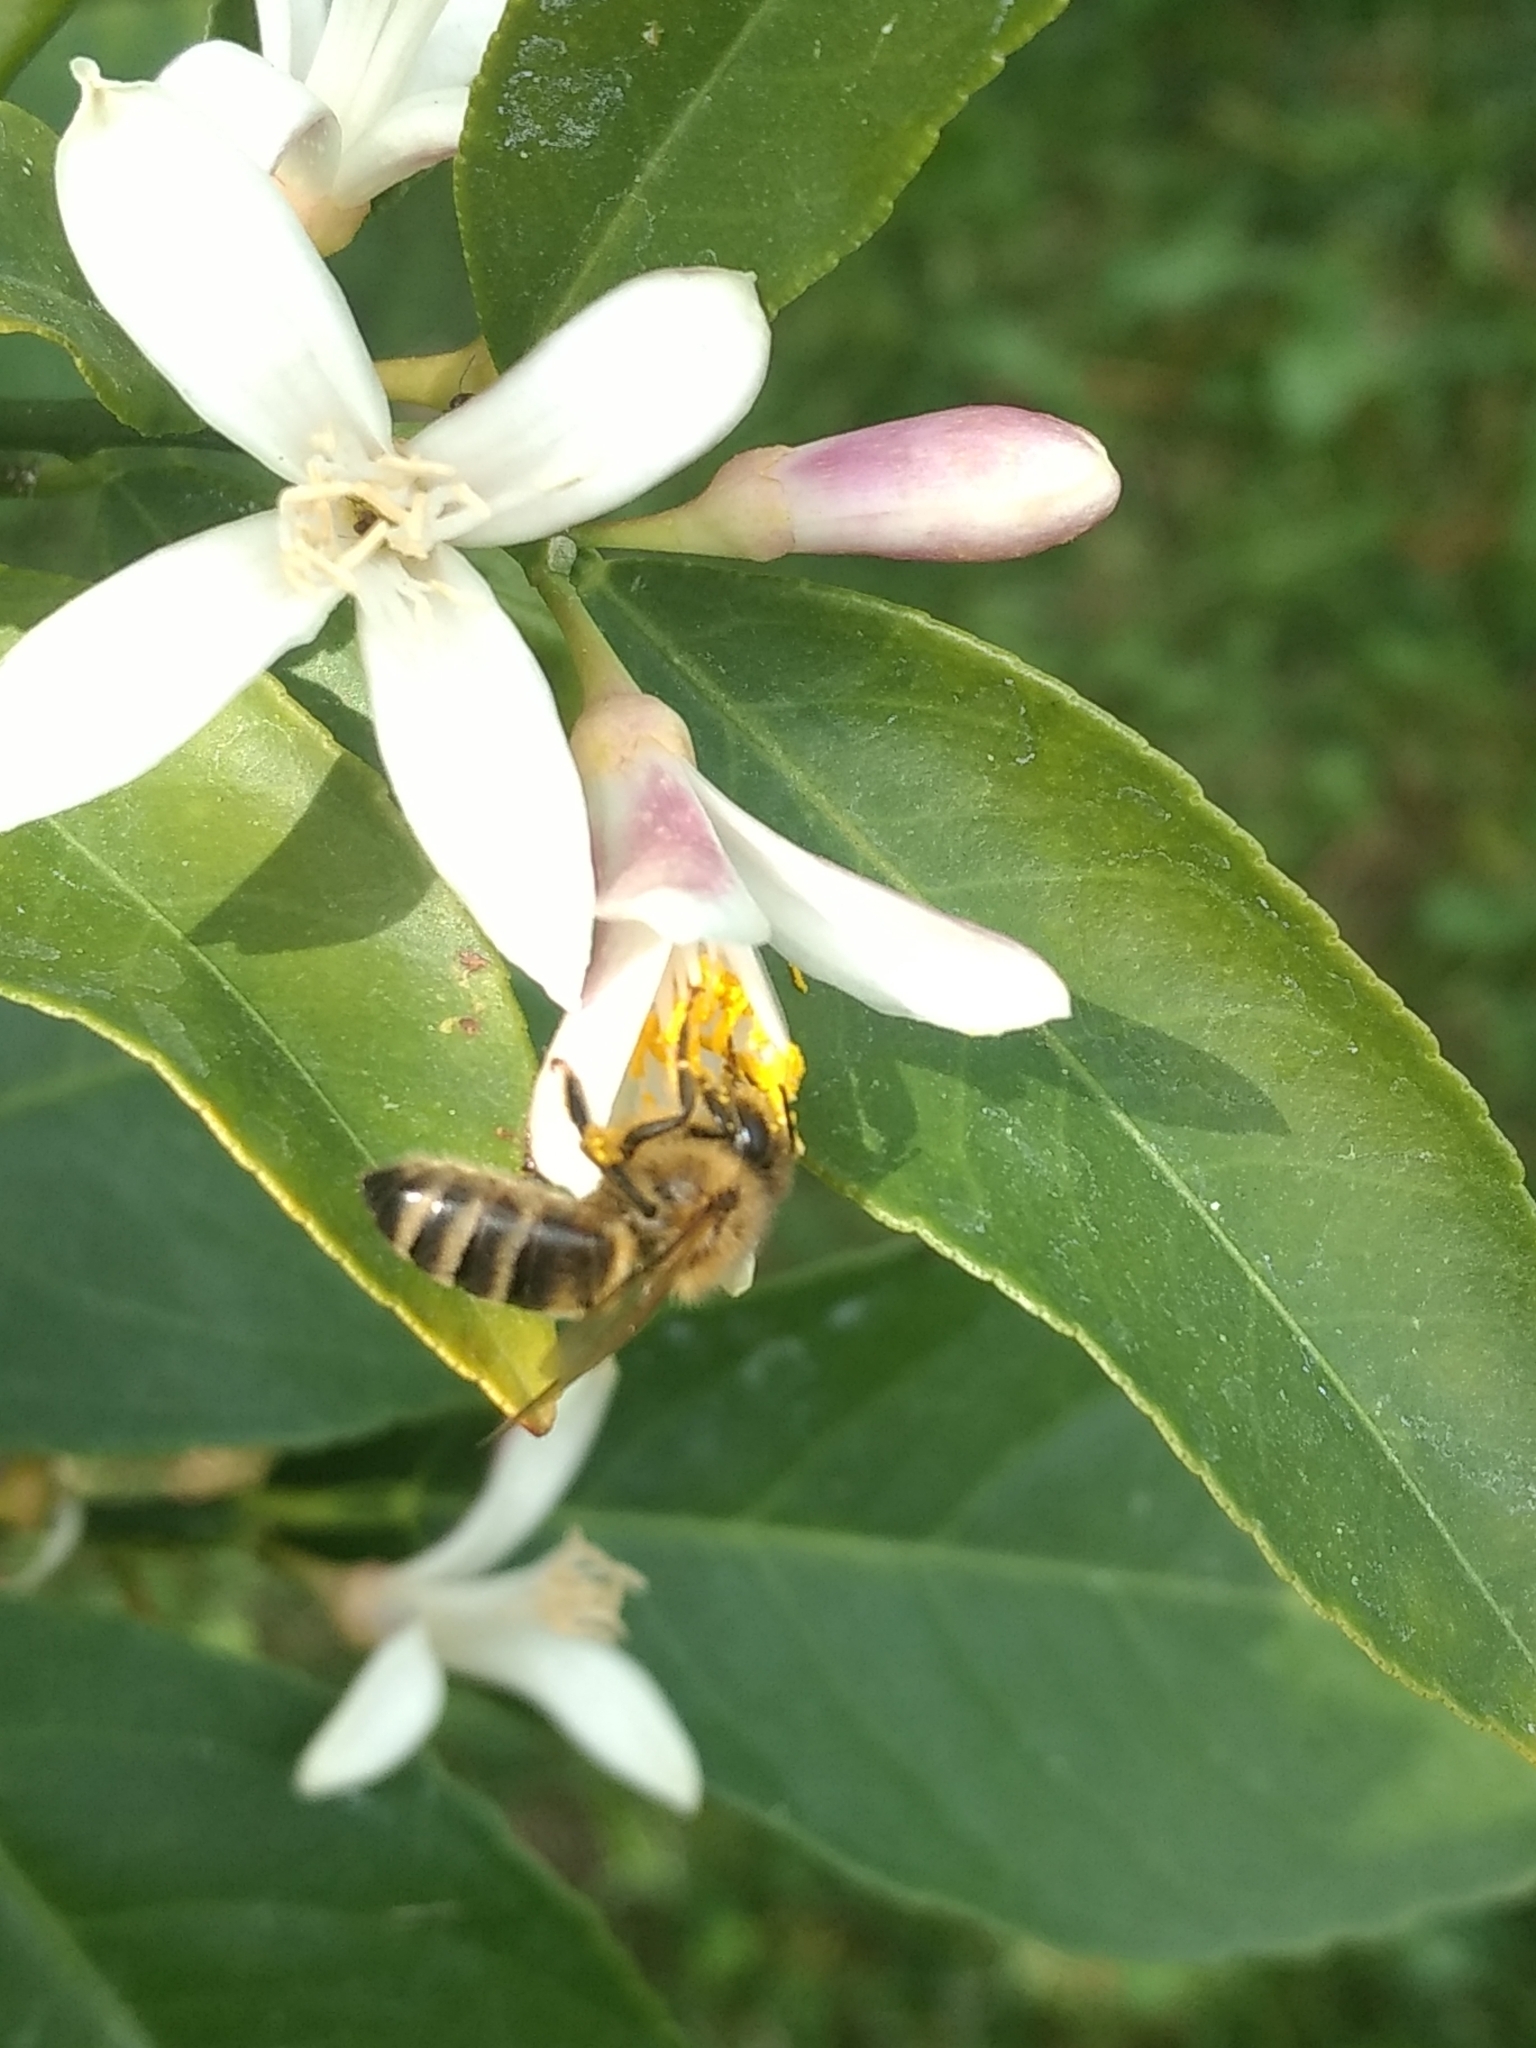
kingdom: Animalia
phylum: Arthropoda
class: Insecta
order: Hymenoptera
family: Apidae
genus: Apis
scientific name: Apis mellifera
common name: Honey bee
